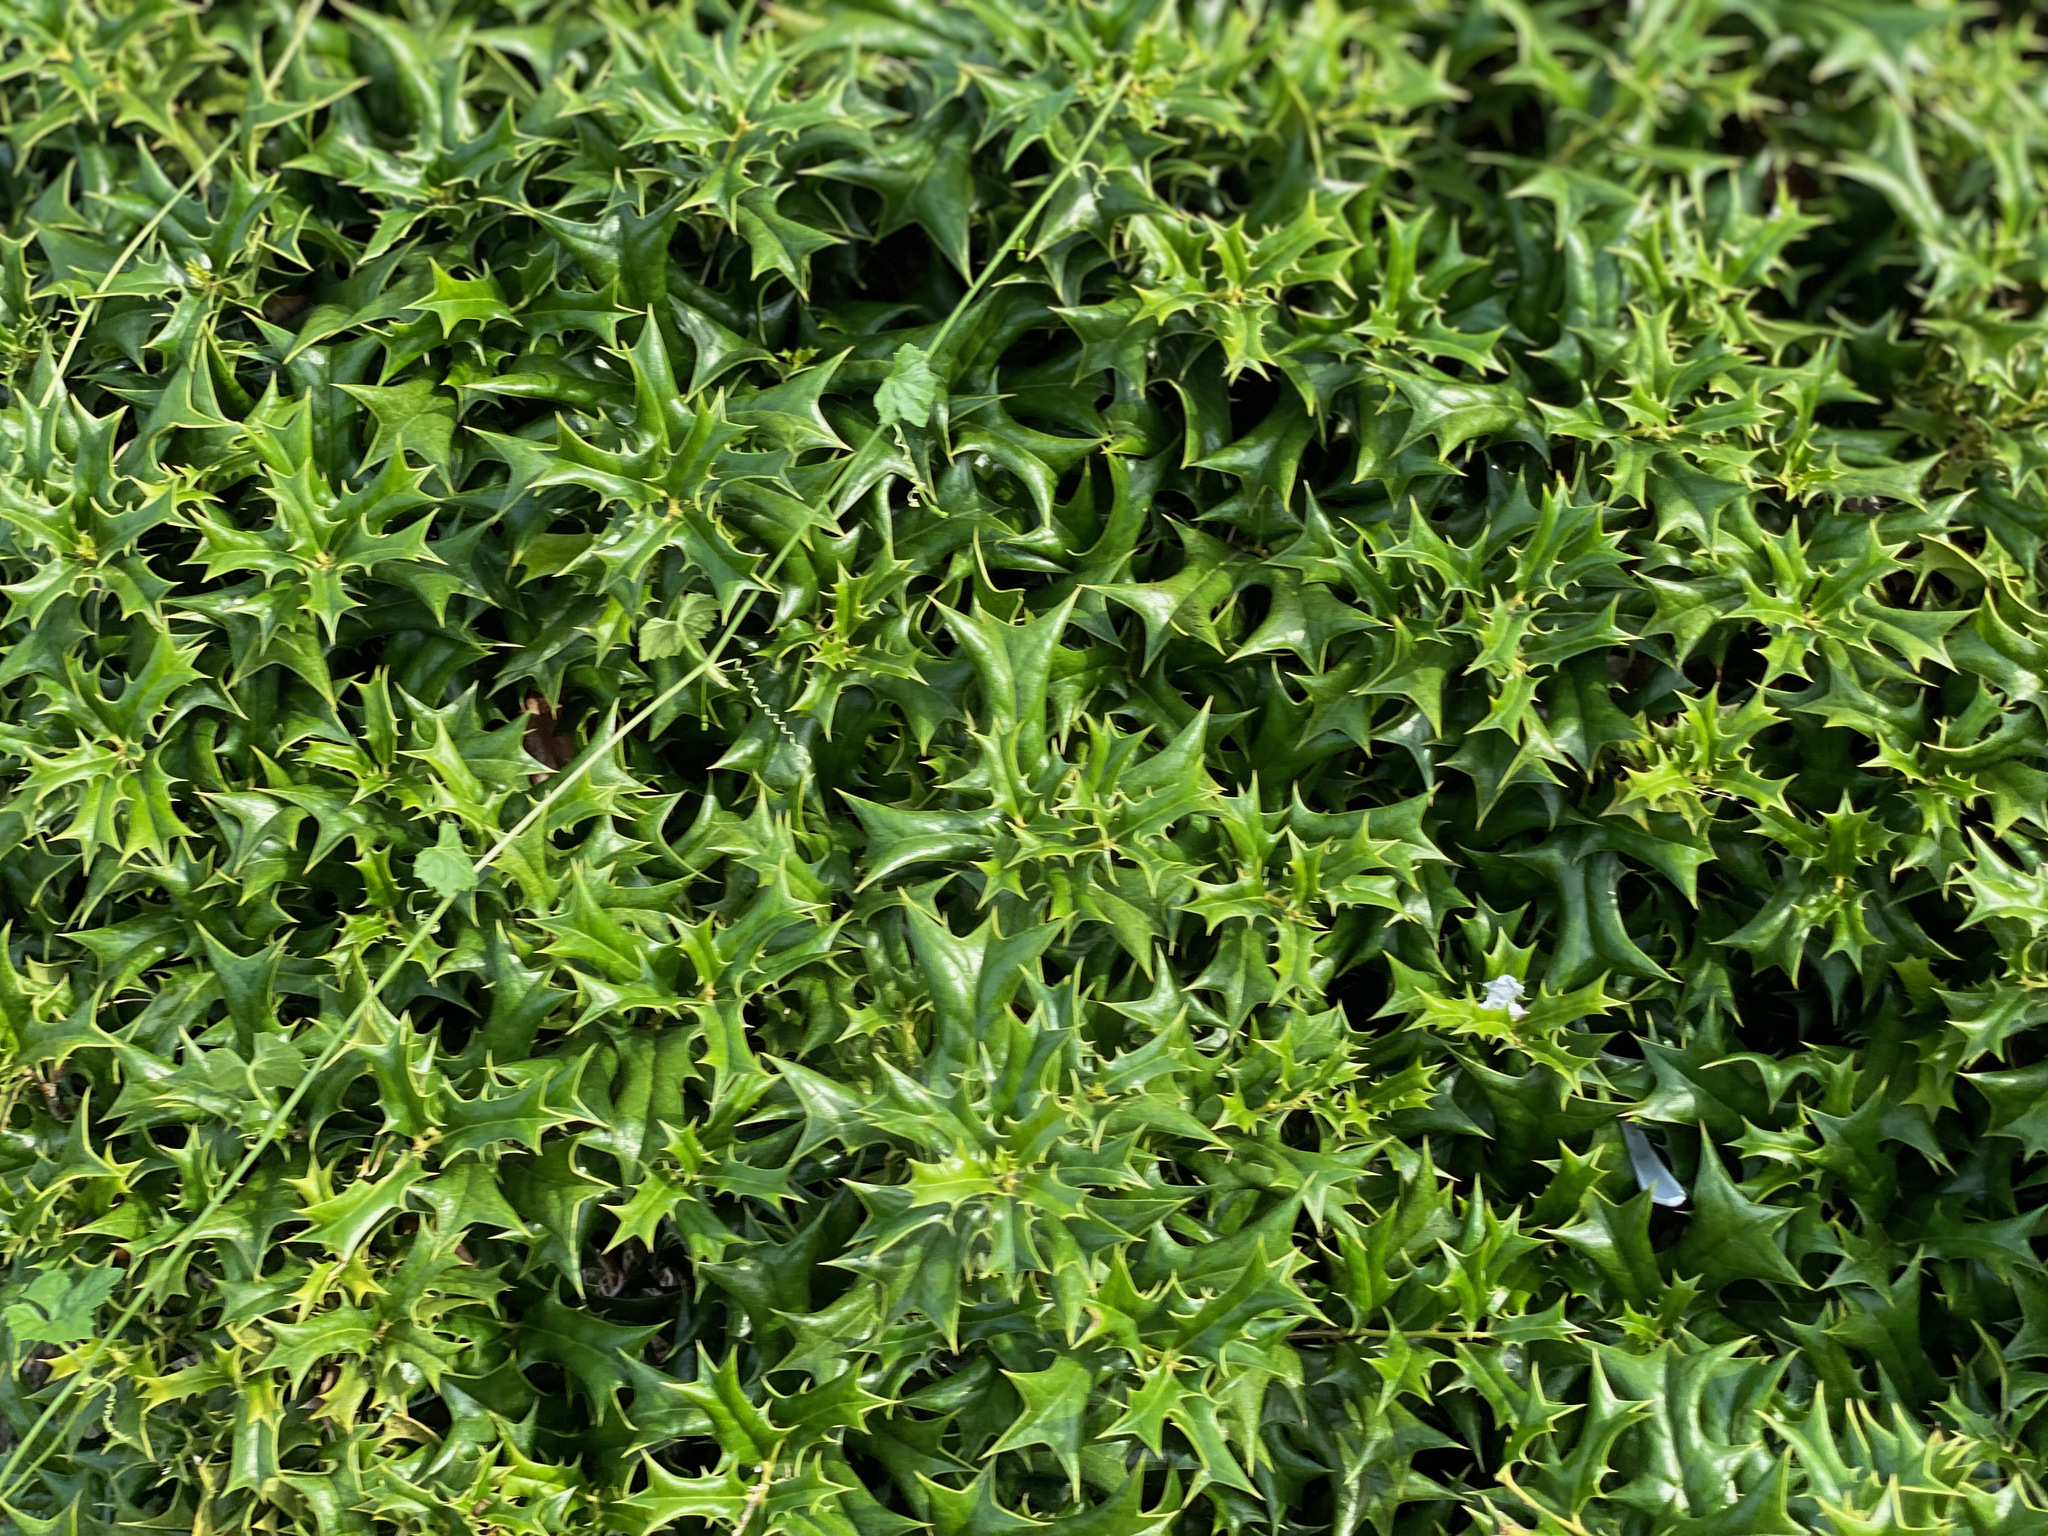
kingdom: Plantae
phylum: Tracheophyta
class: Magnoliopsida
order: Aquifoliales
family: Aquifoliaceae
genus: Ilex
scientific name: Ilex cornuta
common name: Chinese holly
